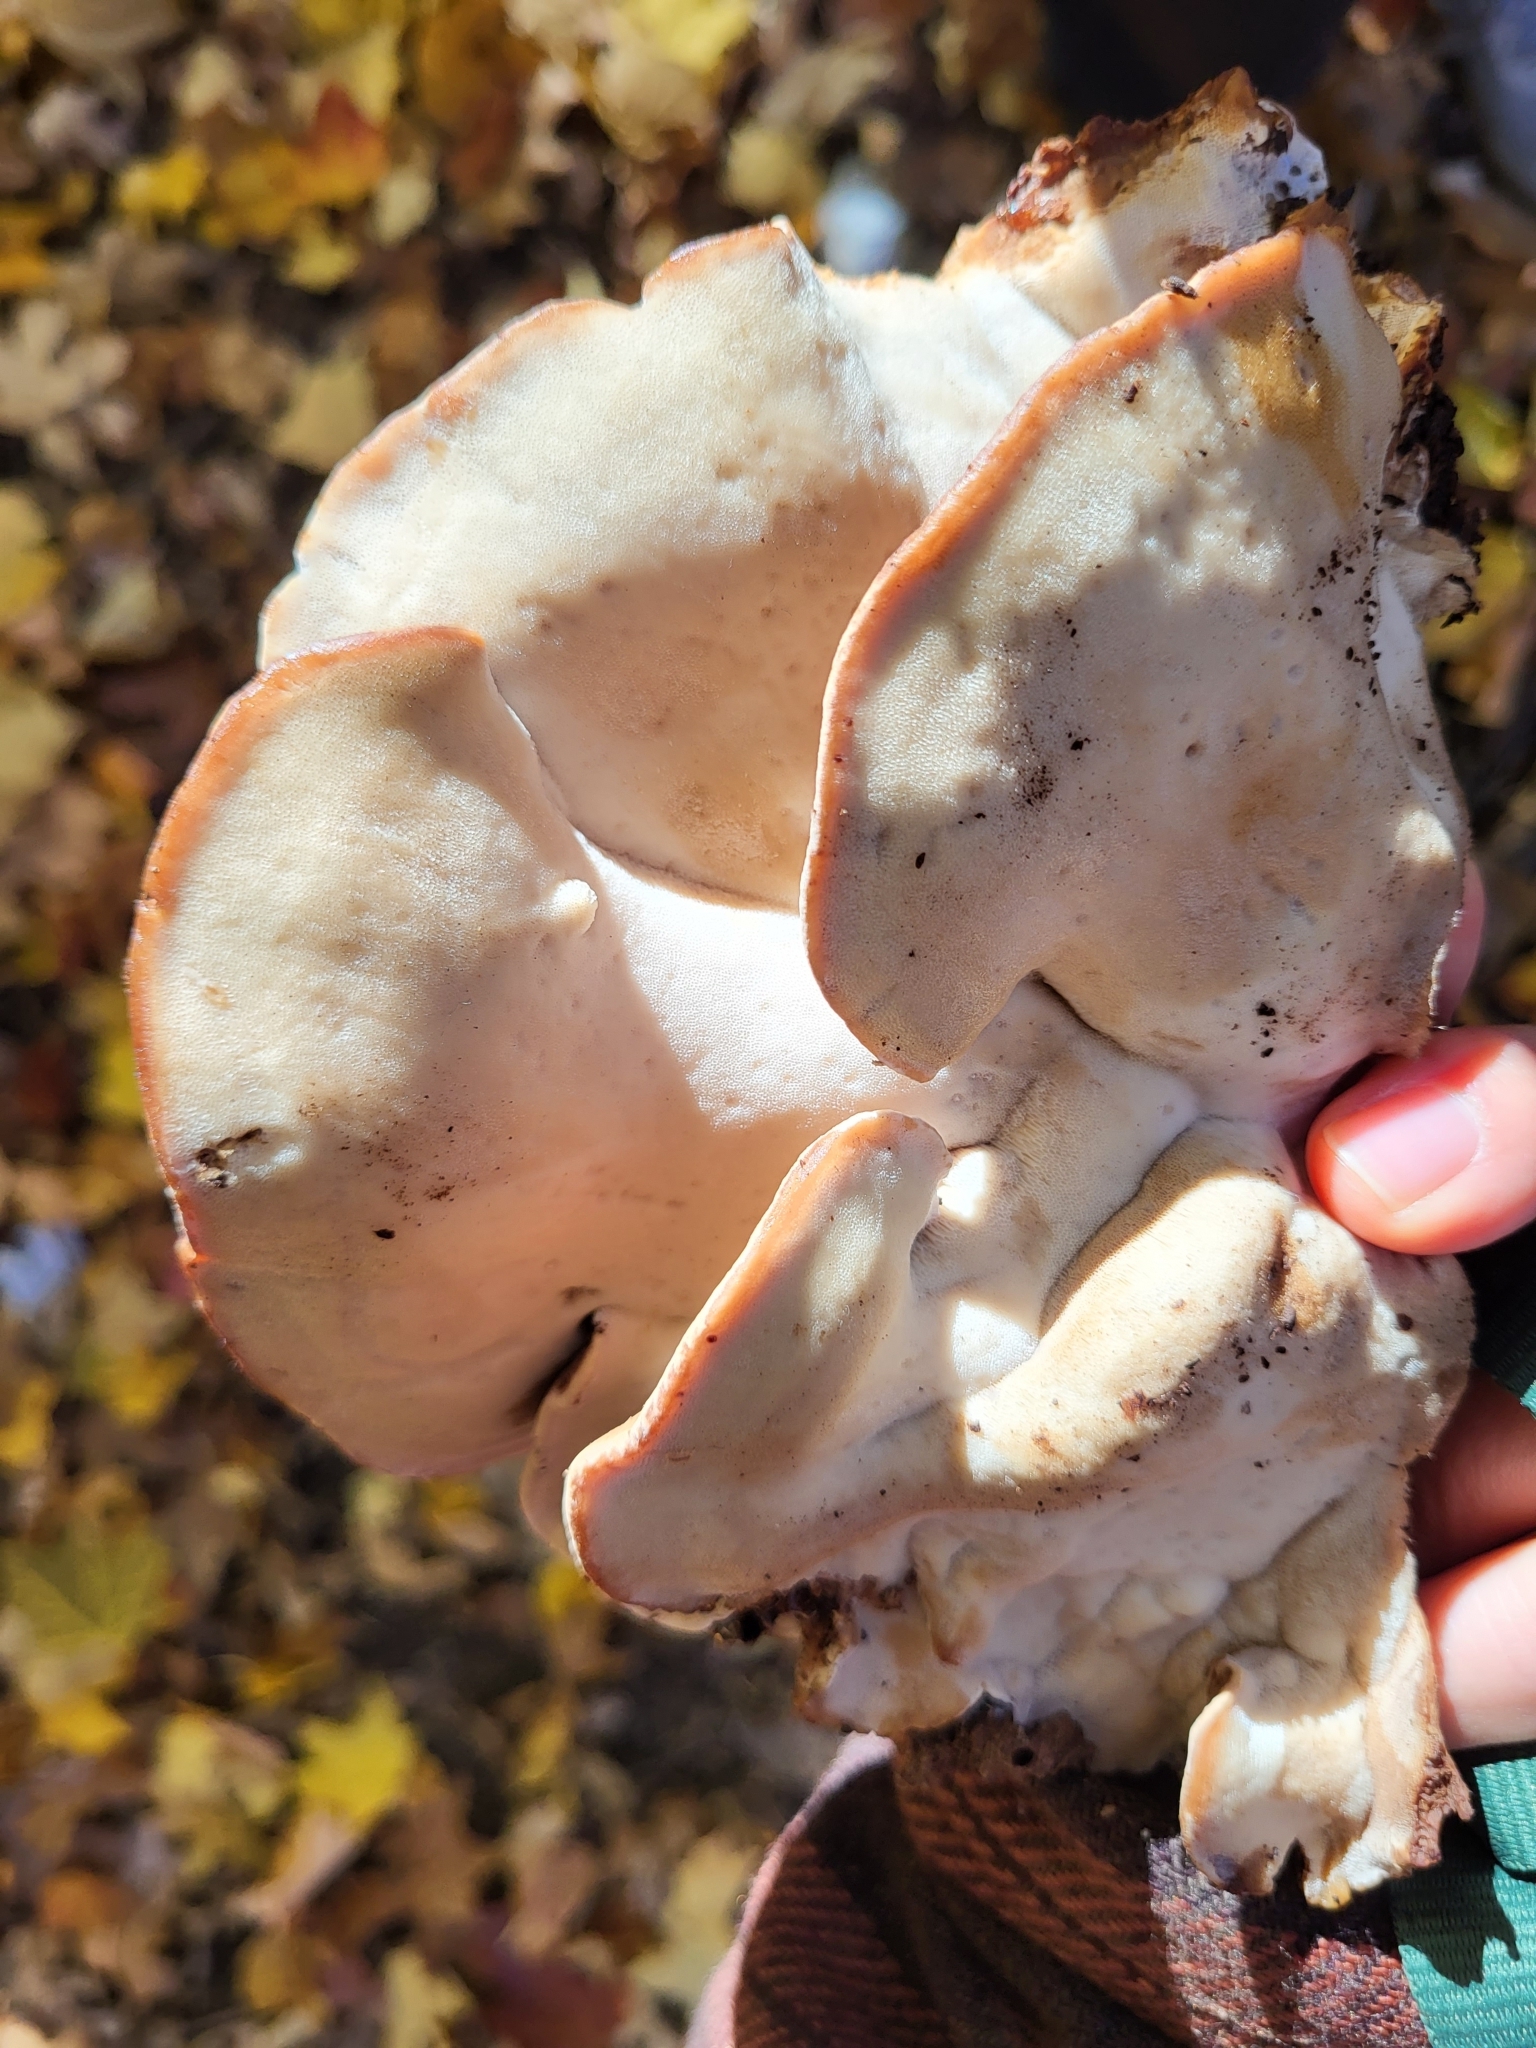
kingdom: Fungi
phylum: Basidiomycota
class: Agaricomycetes
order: Polyporales
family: Ischnodermataceae
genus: Ischnoderma
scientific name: Ischnoderma resinosum
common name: Resinous polypore
